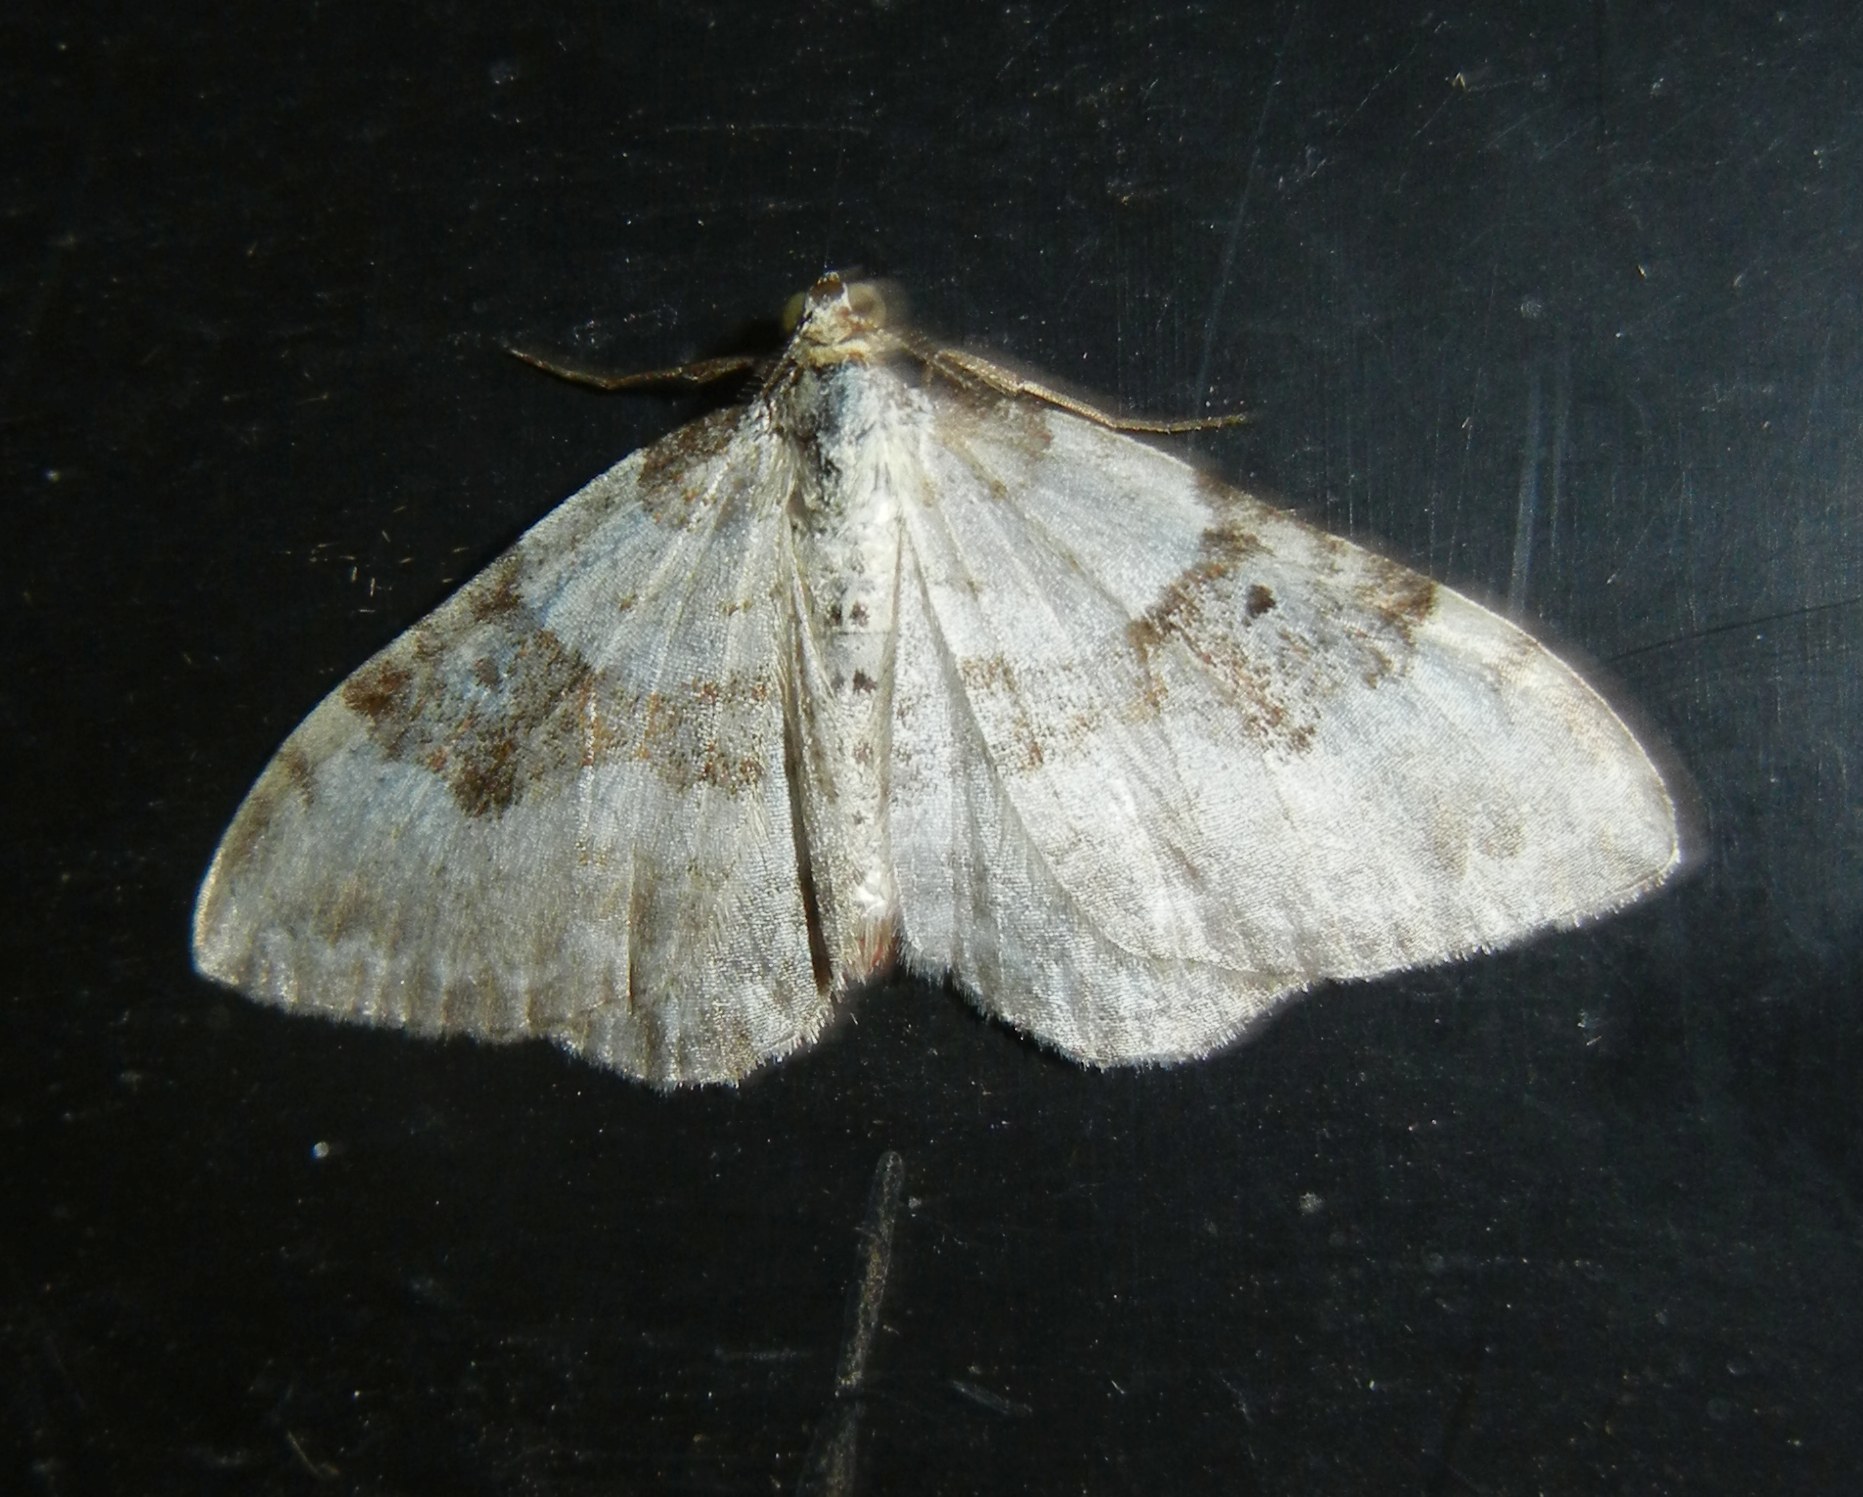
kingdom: Animalia
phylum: Arthropoda
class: Insecta
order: Lepidoptera
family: Geometridae
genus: Xanthorhoe
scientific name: Xanthorhoe montanata
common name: Silver-ground carpet
